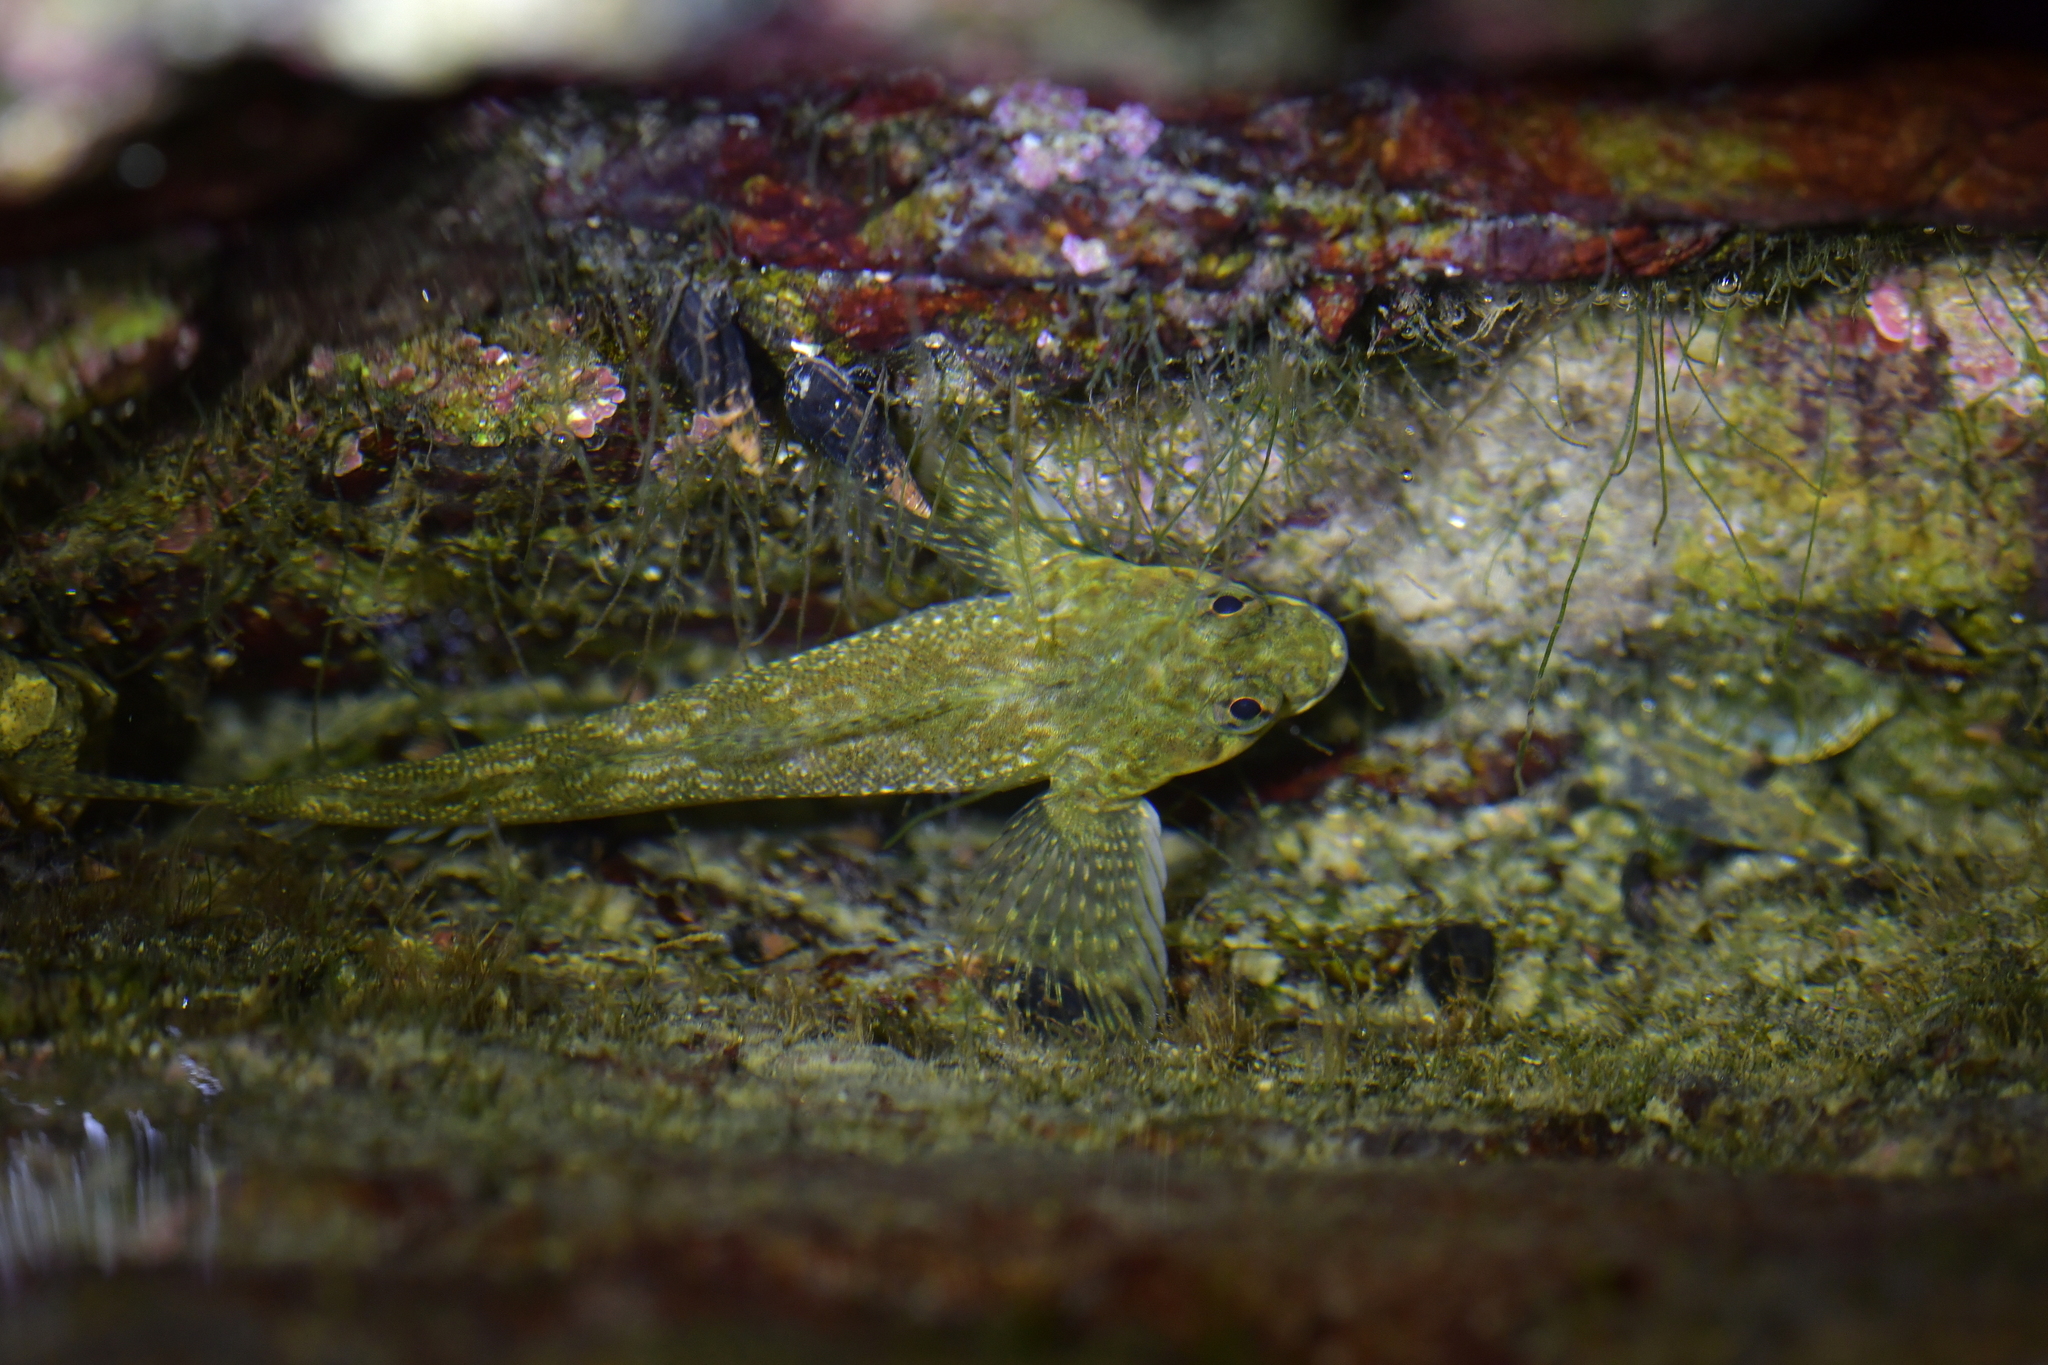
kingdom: Animalia
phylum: Chordata
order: Perciformes
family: Tripterygiidae
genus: Bellapiscis
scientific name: Bellapiscis medius
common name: Twister
